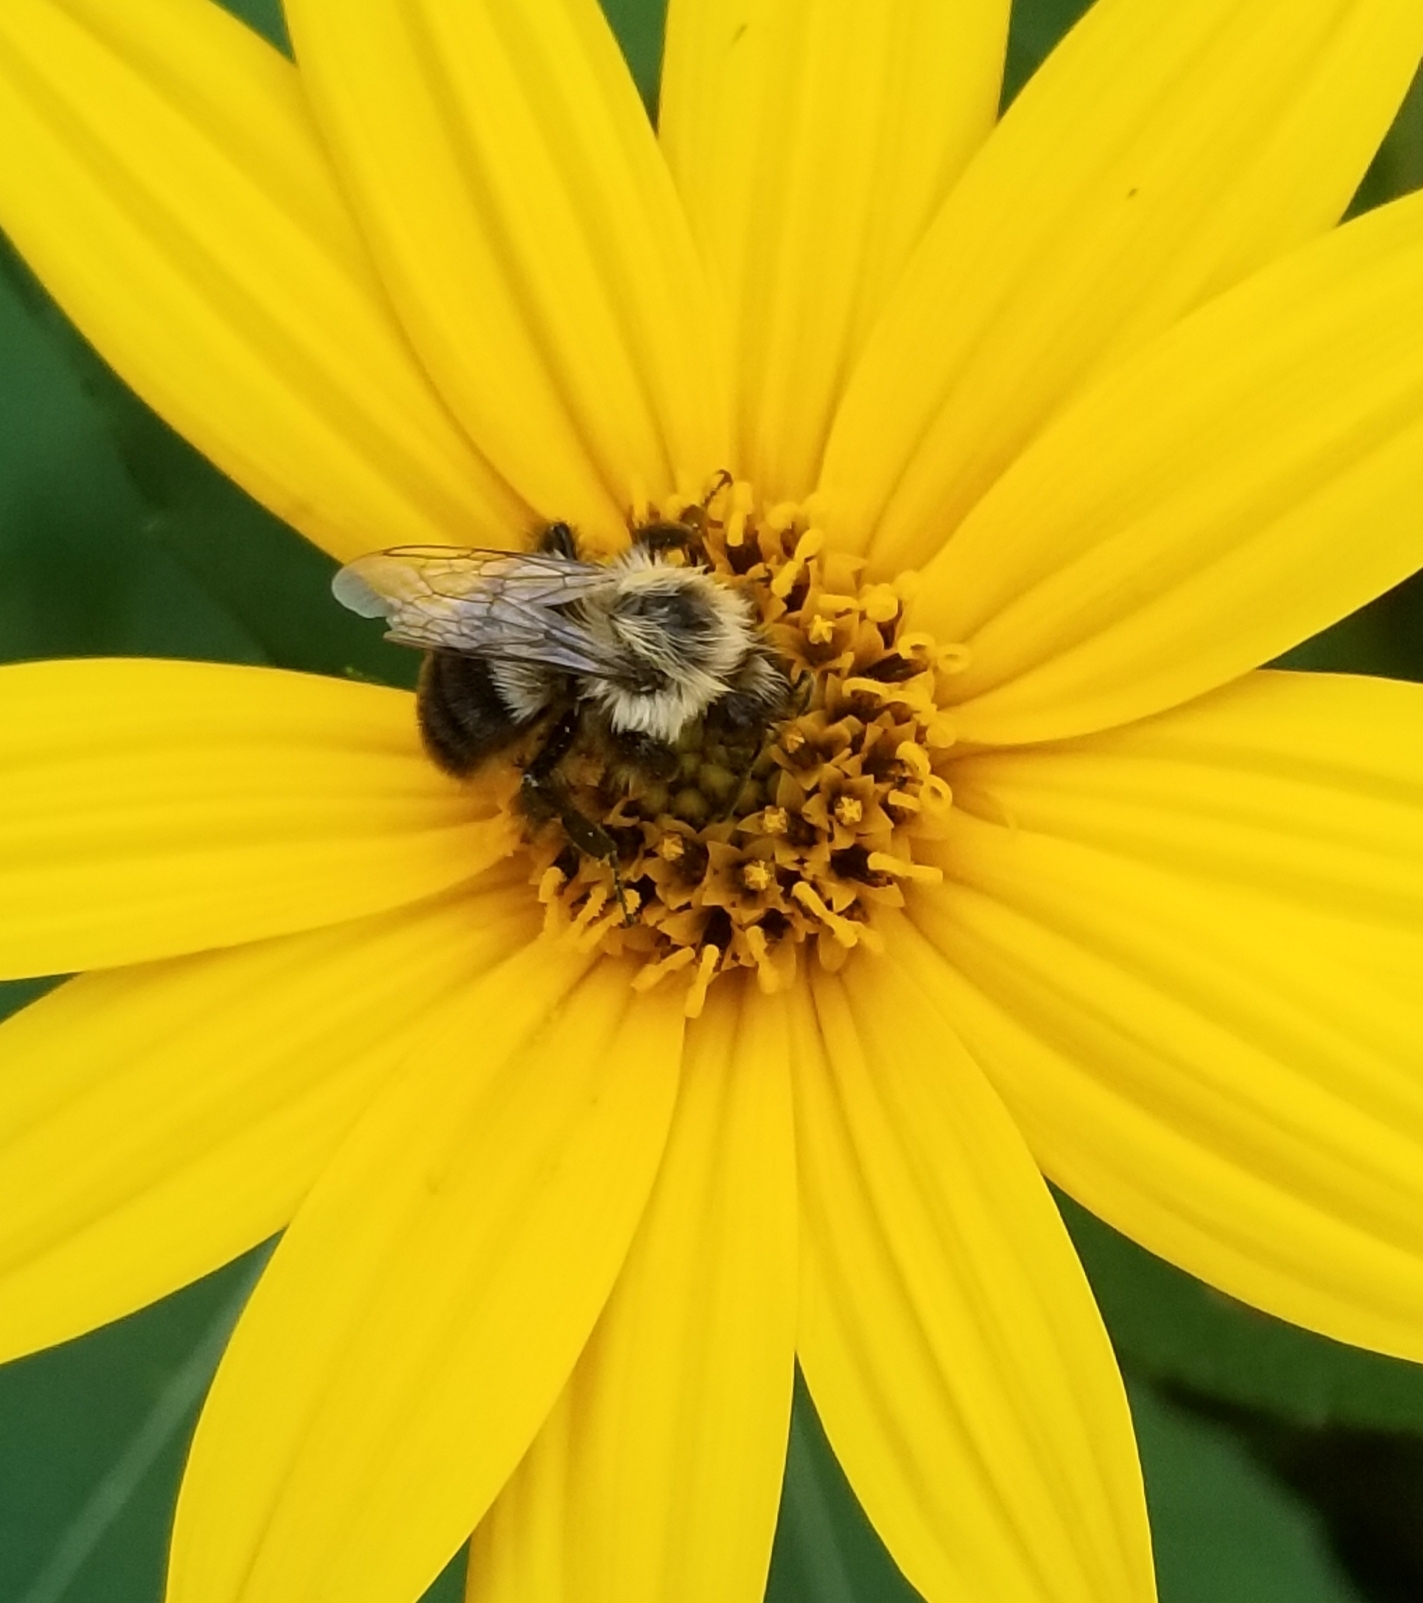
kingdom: Animalia
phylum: Arthropoda
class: Insecta
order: Hymenoptera
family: Apidae
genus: Bombus
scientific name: Bombus impatiens
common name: Common eastern bumble bee
